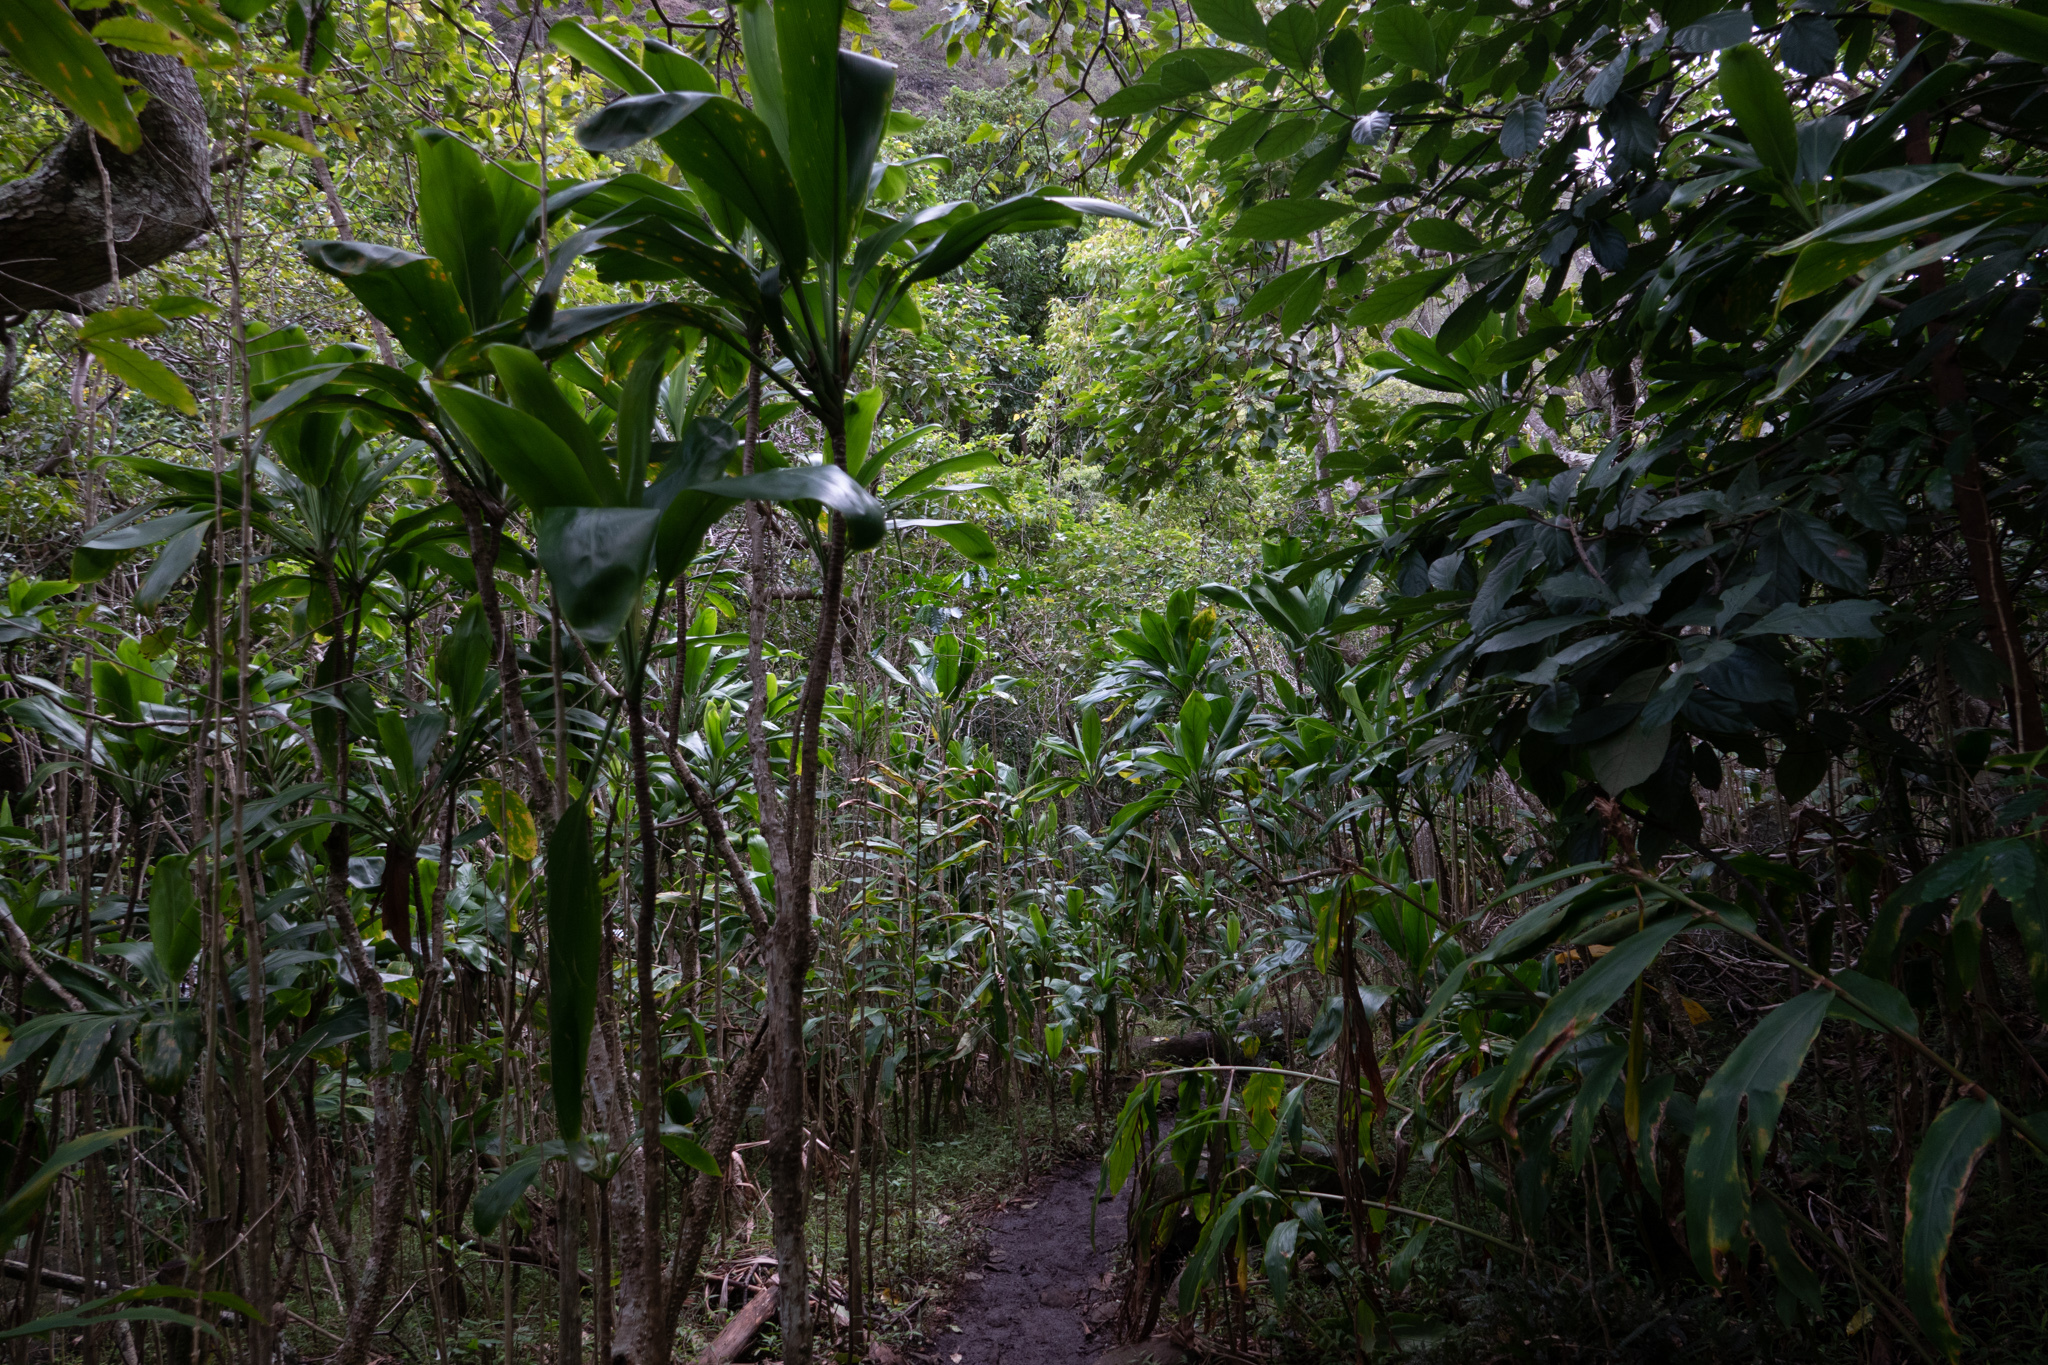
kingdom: Plantae
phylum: Tracheophyta
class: Liliopsida
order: Asparagales
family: Asparagaceae
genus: Cordyline
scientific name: Cordyline fruticosa
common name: Good-luck-plant
